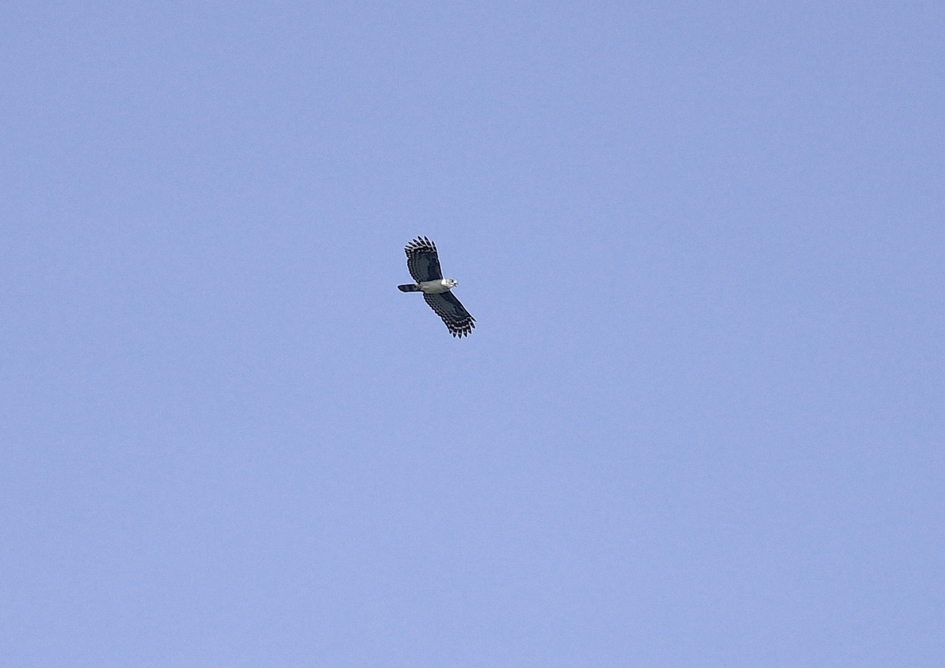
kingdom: Animalia
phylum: Chordata
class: Aves
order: Accipitriformes
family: Accipitridae
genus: Leptodon
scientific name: Leptodon cayanensis
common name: Gray-headed kite
